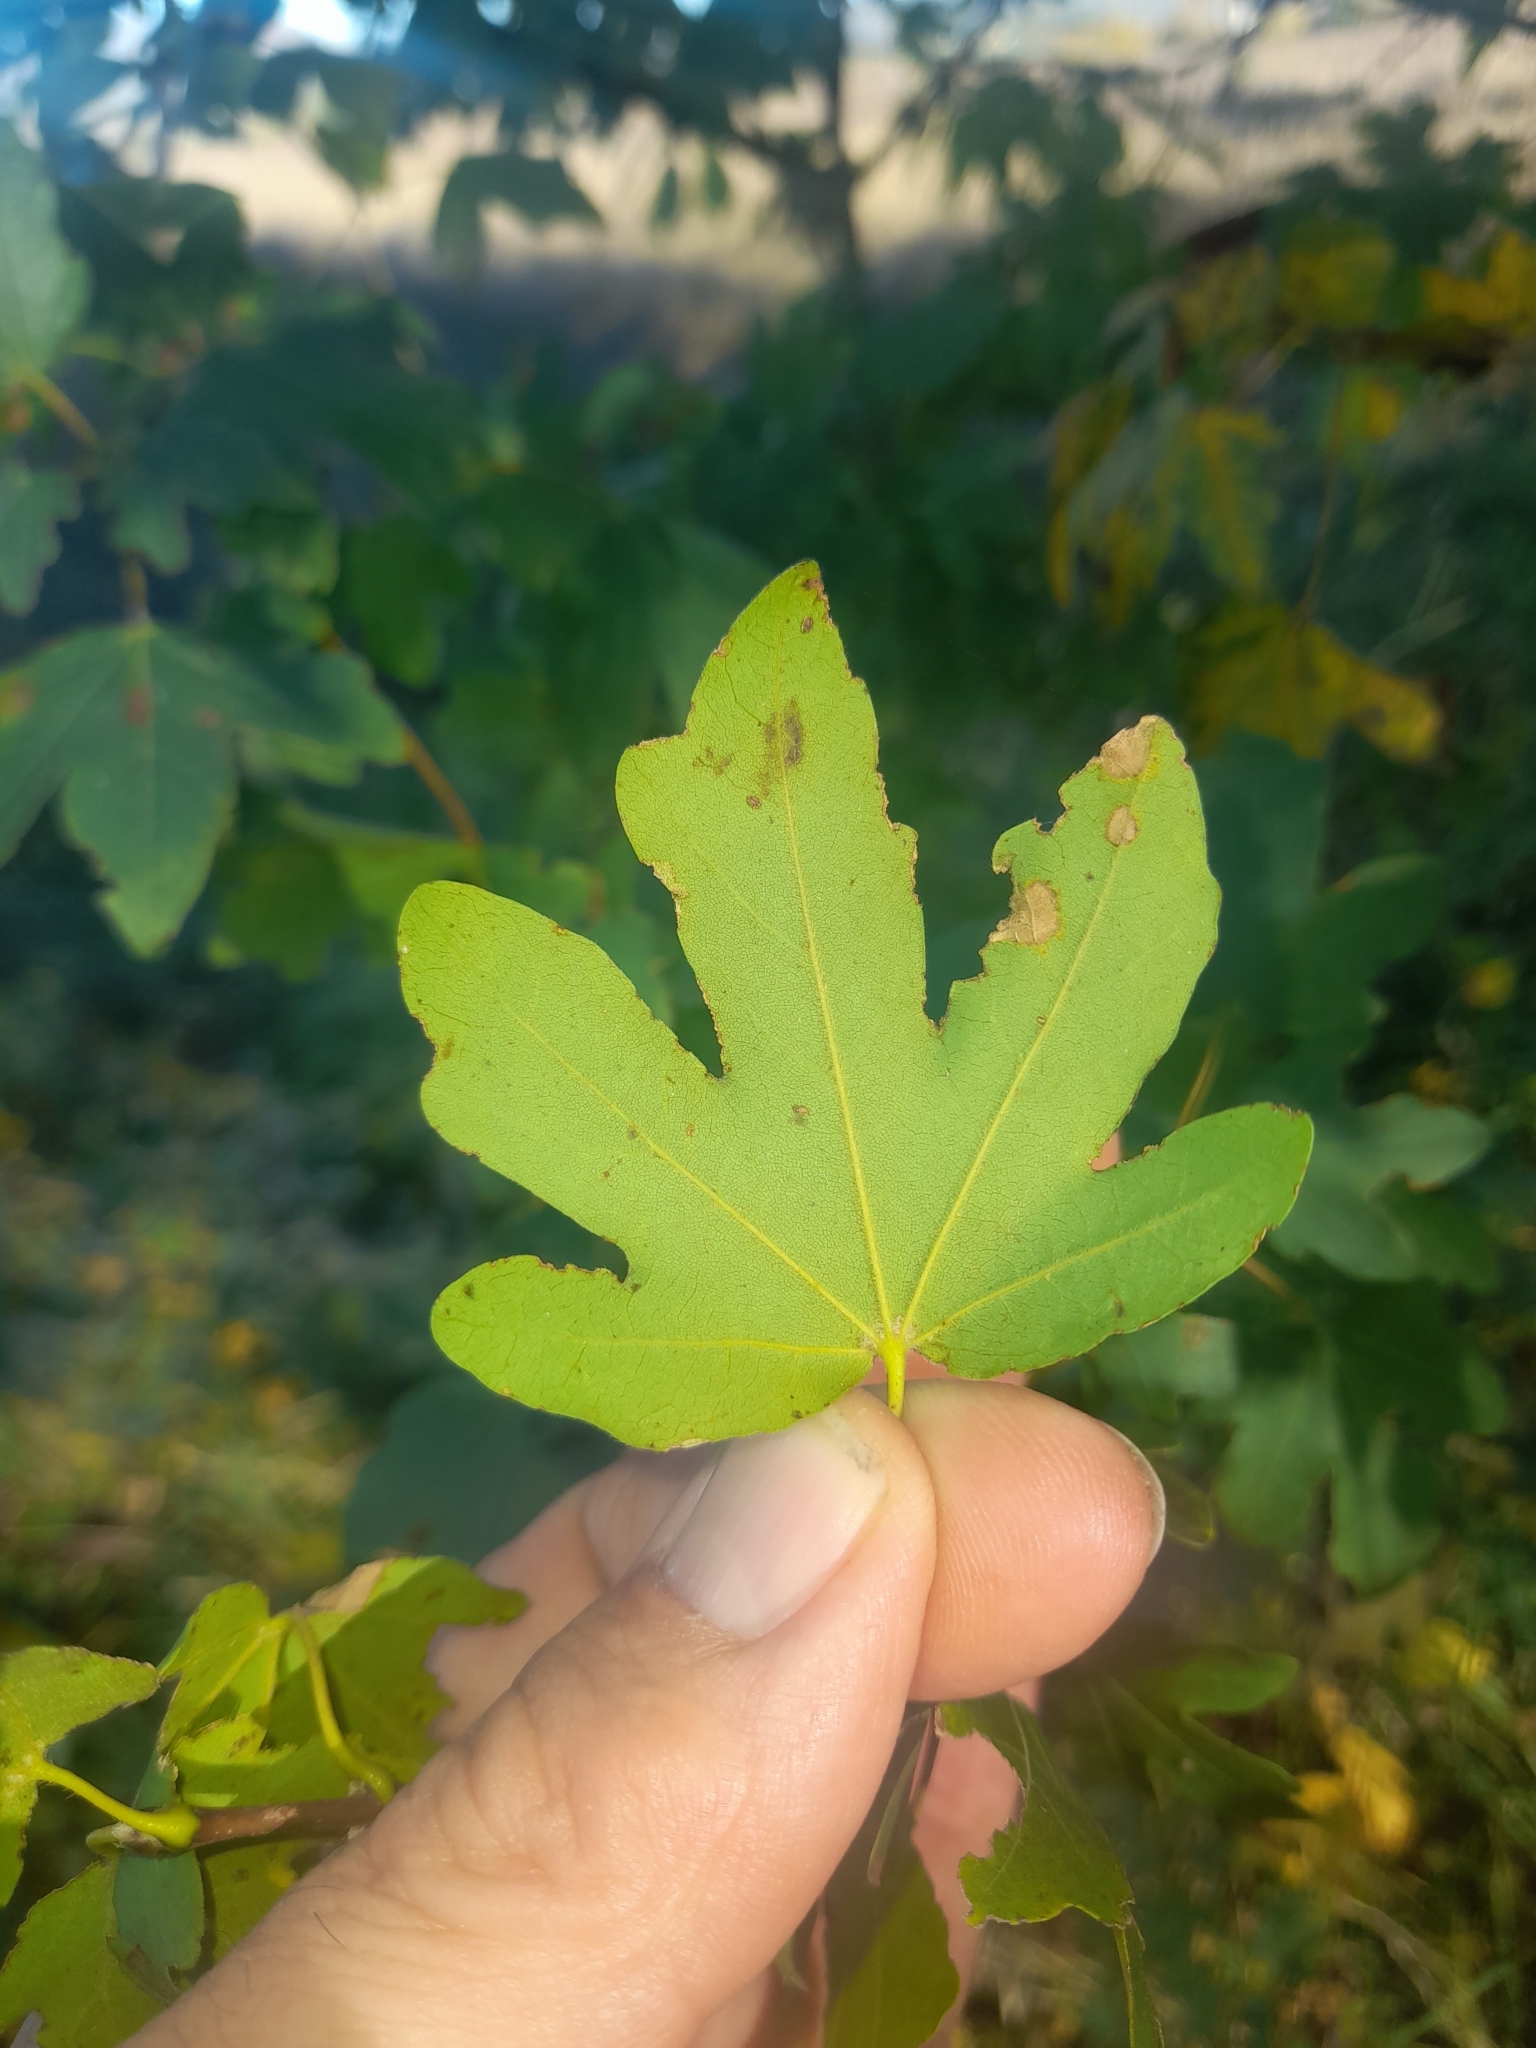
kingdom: Plantae
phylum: Tracheophyta
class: Magnoliopsida
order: Sapindales
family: Sapindaceae
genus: Acer
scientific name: Acer campestre
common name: Field maple
